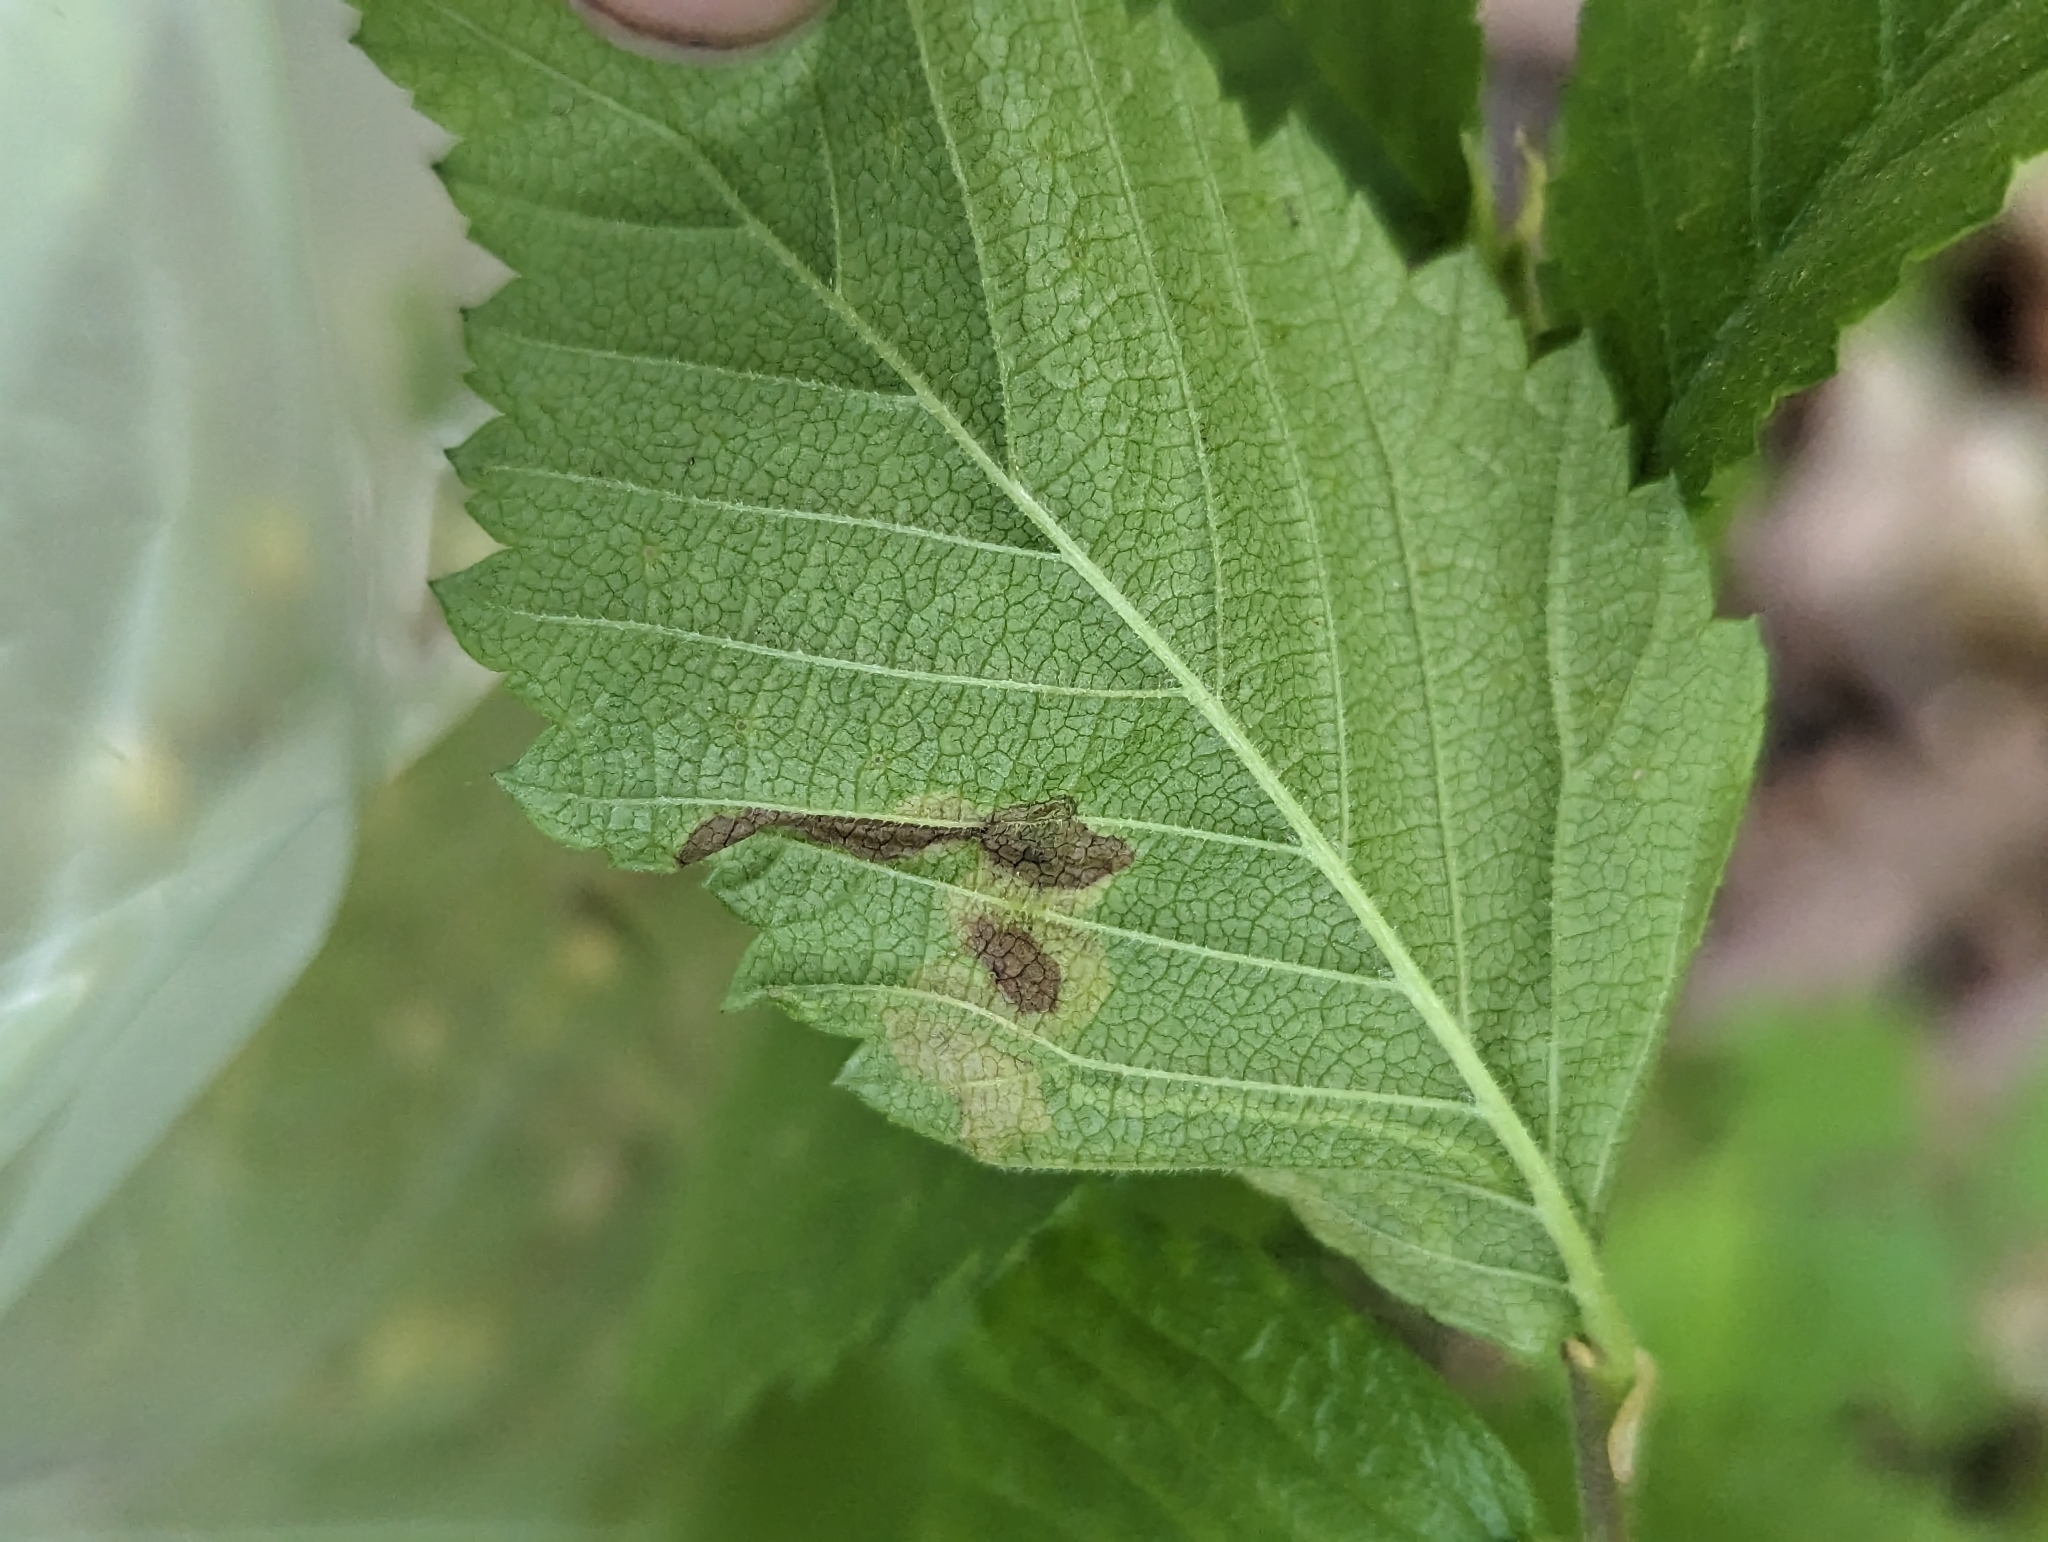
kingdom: Animalia
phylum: Arthropoda
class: Insecta
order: Diptera
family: Agromyzidae
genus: Agromyza
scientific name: Agromyza aristata
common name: Elm agromyzid leafminer
